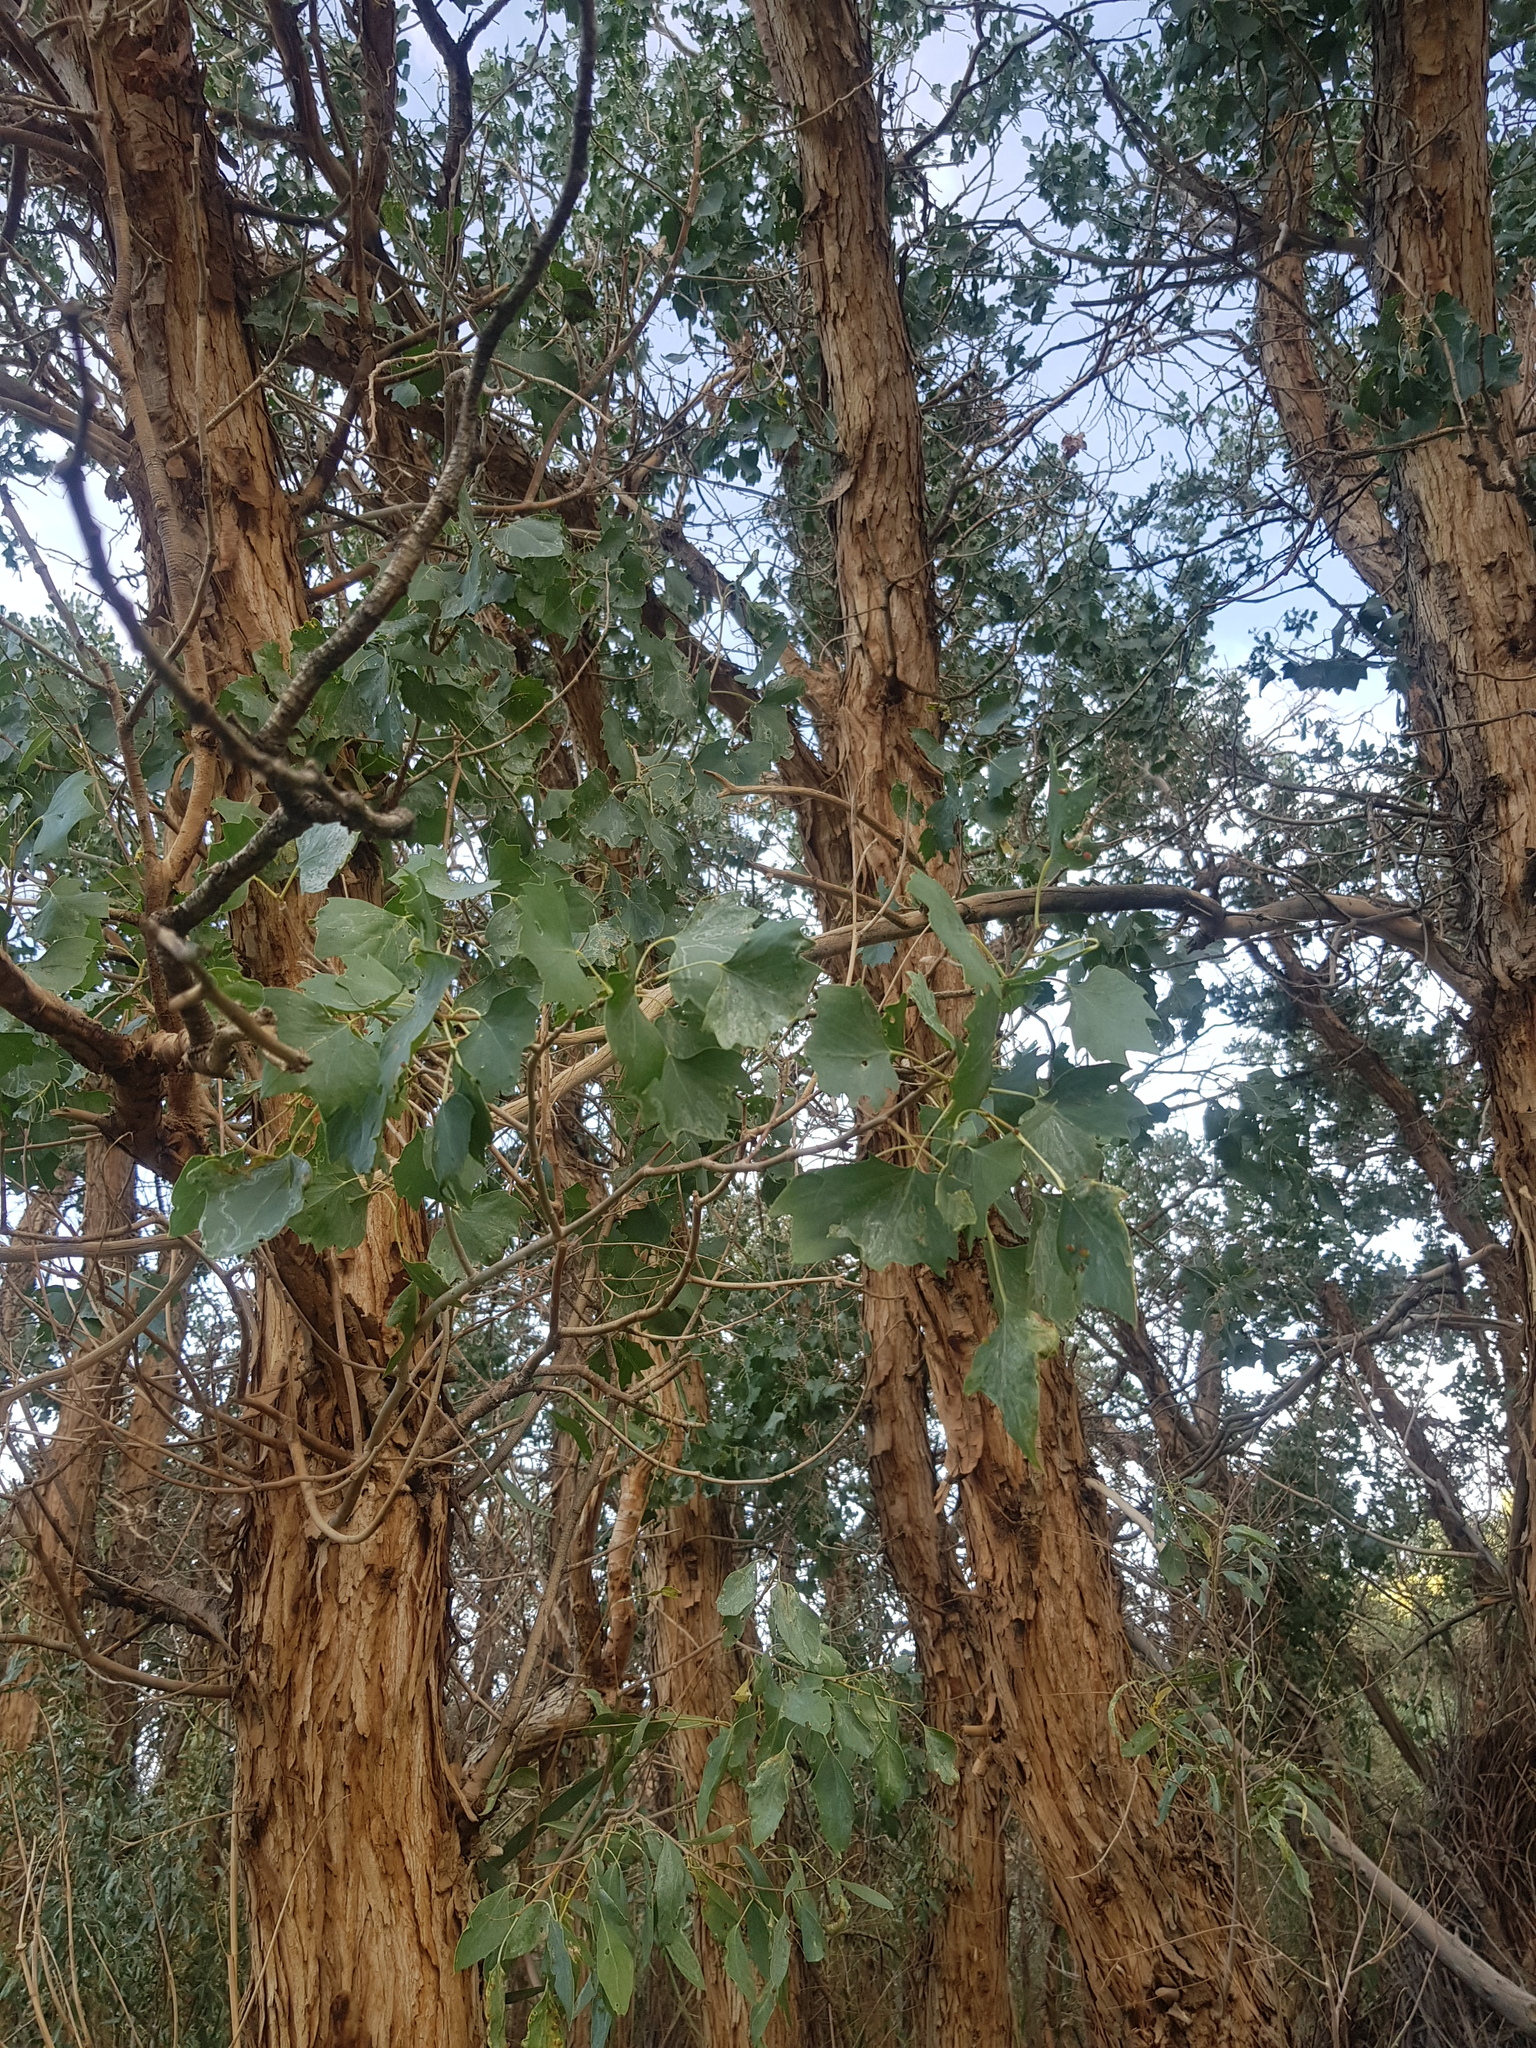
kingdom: Plantae
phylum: Tracheophyta
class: Magnoliopsida
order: Malpighiales
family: Salicaceae
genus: Populus
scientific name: Populus euphratica
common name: Euphrates poplar
